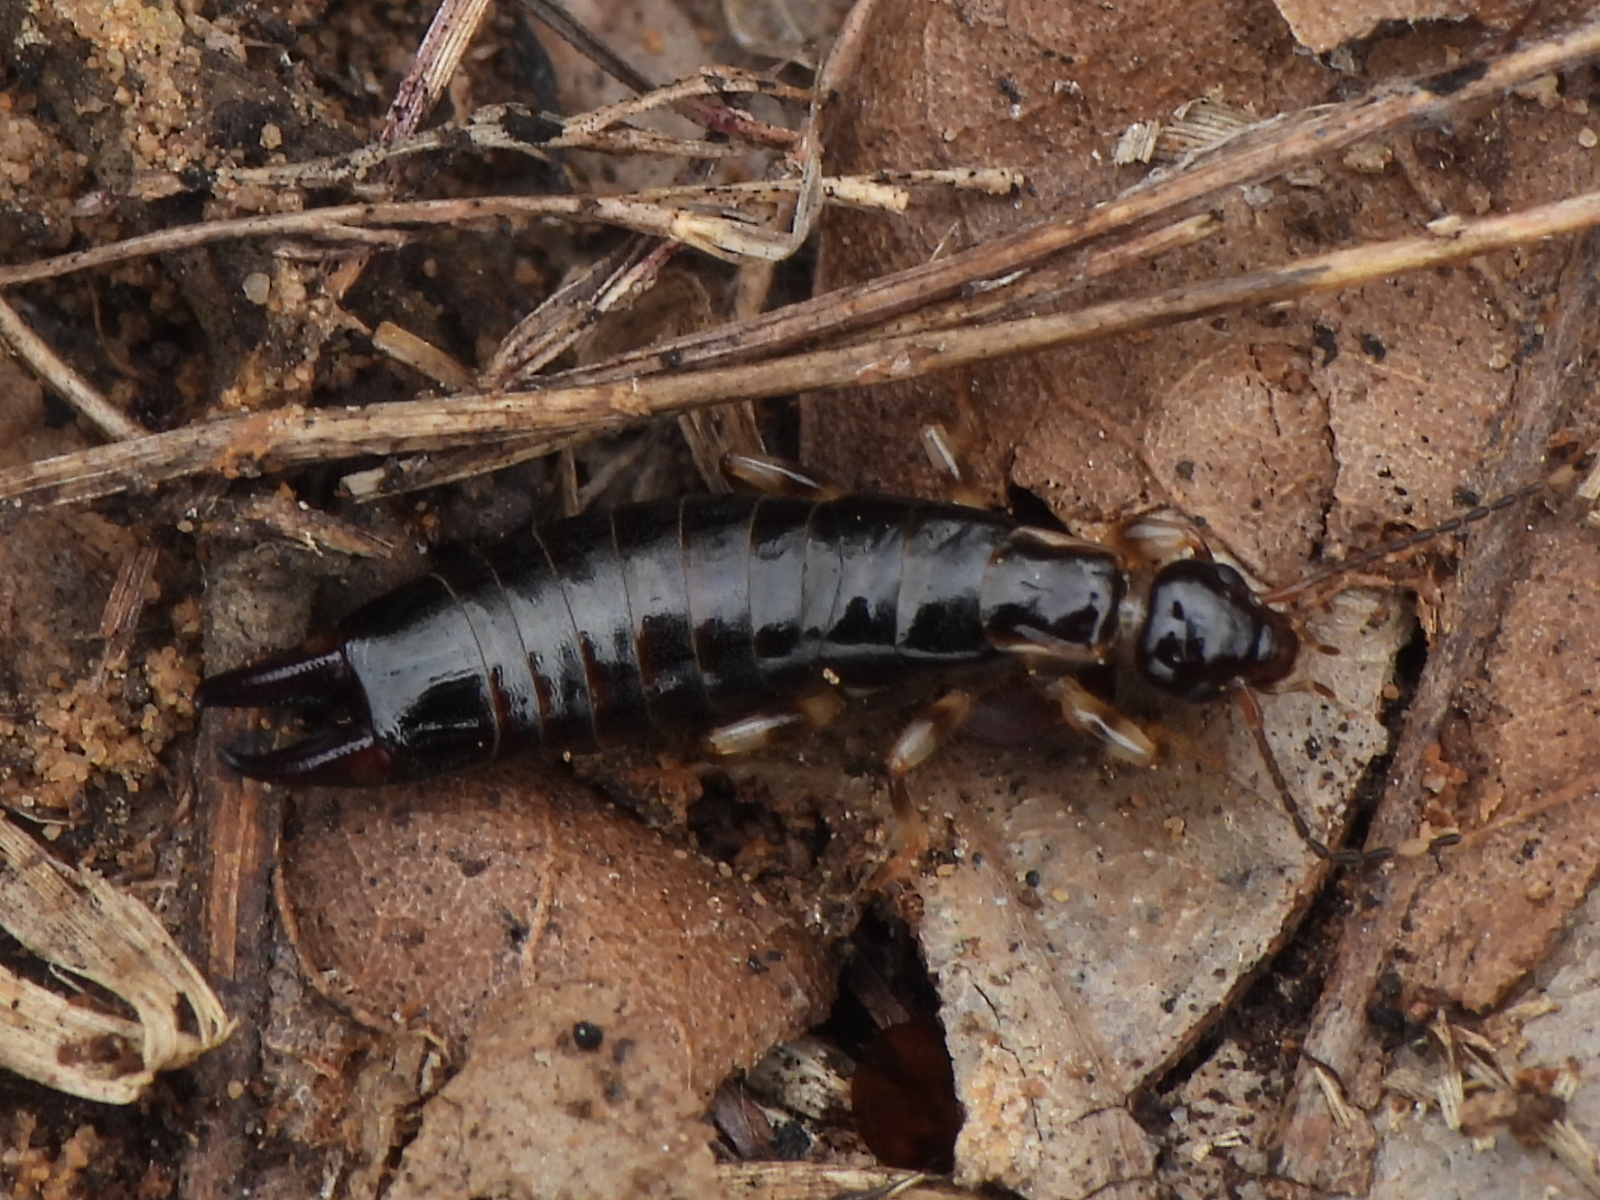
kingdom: Animalia
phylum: Arthropoda
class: Insecta
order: Dermaptera
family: Anisolabididae
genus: Euborellia
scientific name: Euborellia annulipes
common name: Ringlegged earwig
